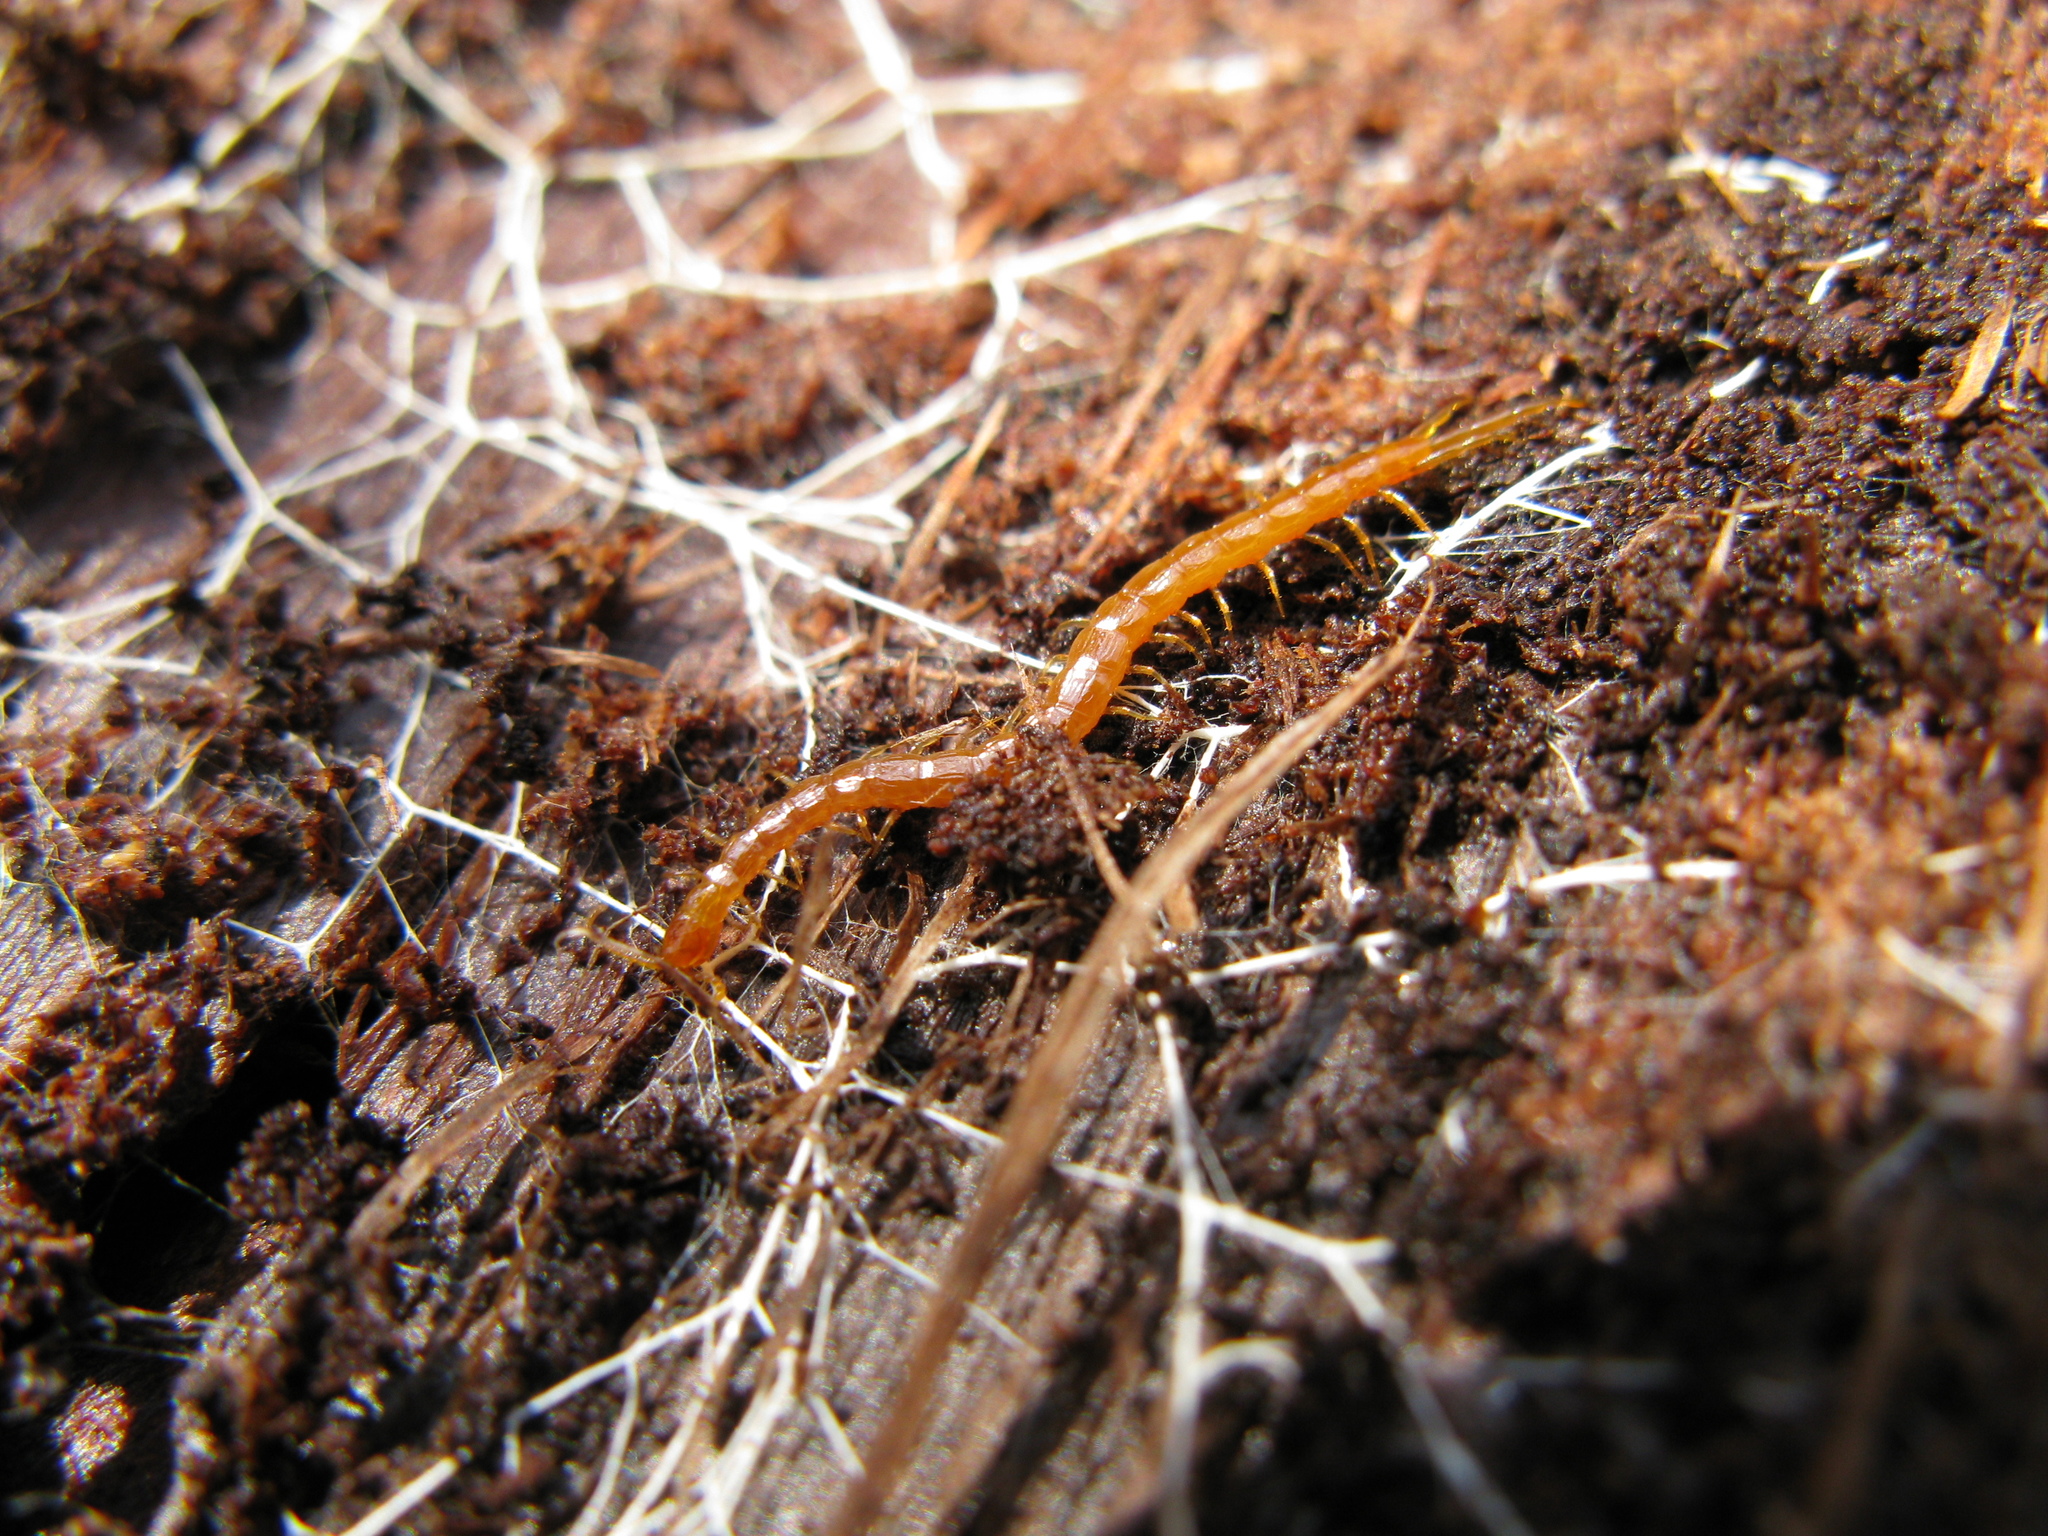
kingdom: Animalia
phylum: Arthropoda
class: Chilopoda
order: Scolopendromorpha
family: Cryptopidae
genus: Cryptops
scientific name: Cryptops hortensis
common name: Centipede
